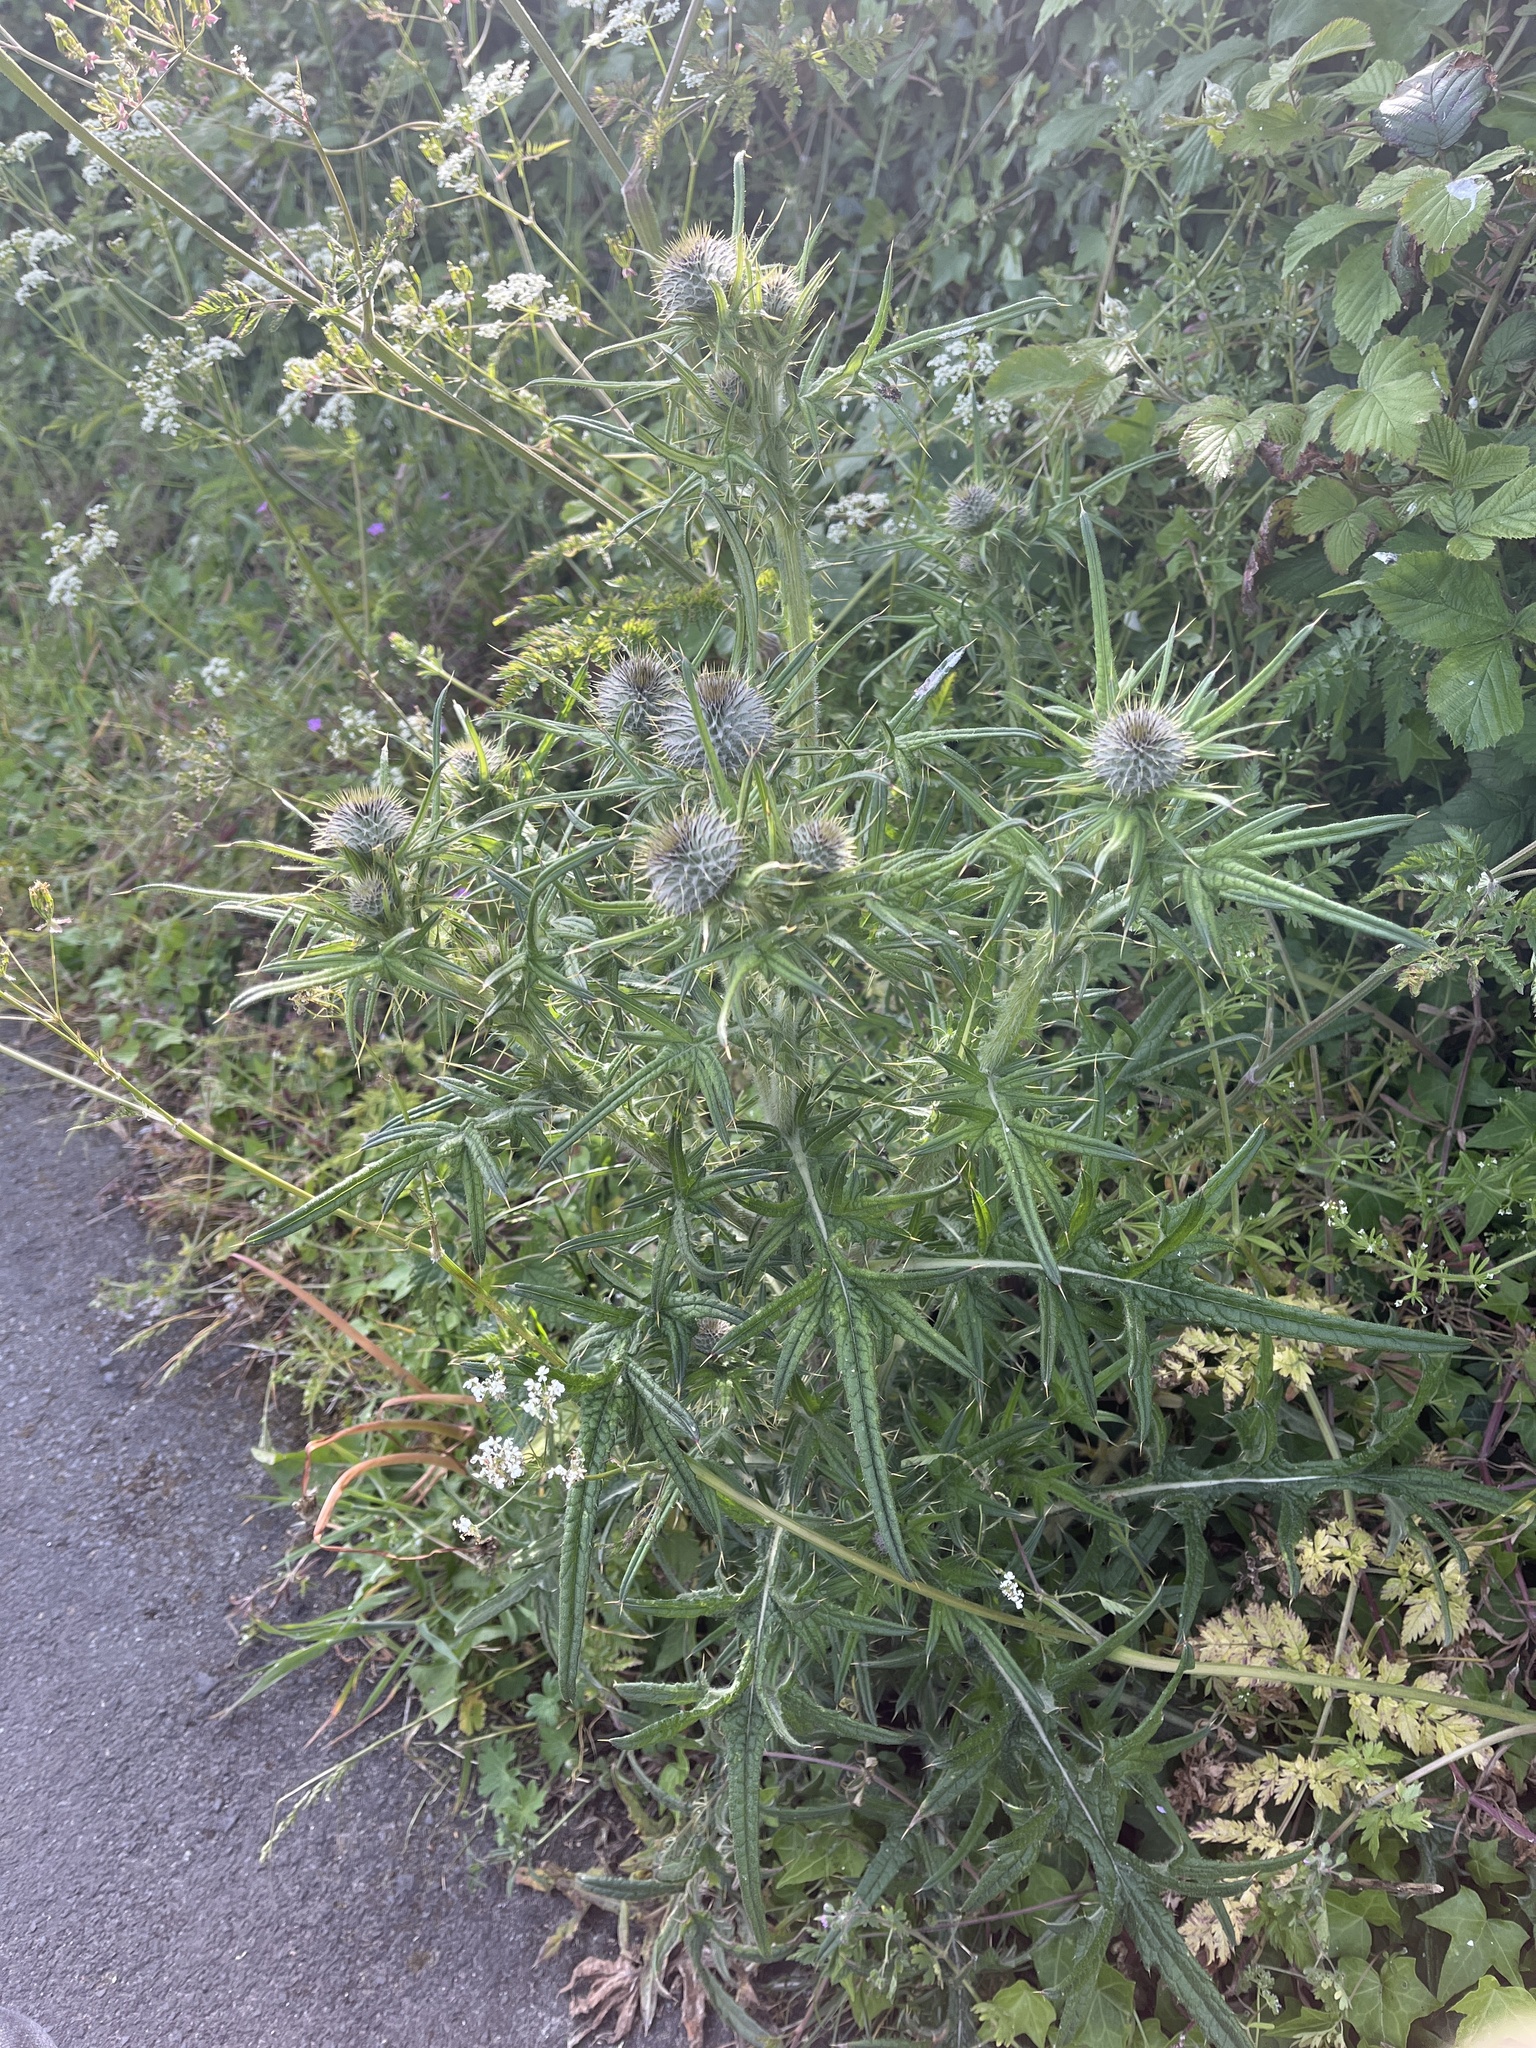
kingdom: Plantae
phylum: Tracheophyta
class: Magnoliopsida
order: Asterales
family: Asteraceae
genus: Cirsium
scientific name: Cirsium vulgare
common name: Bull thistle
